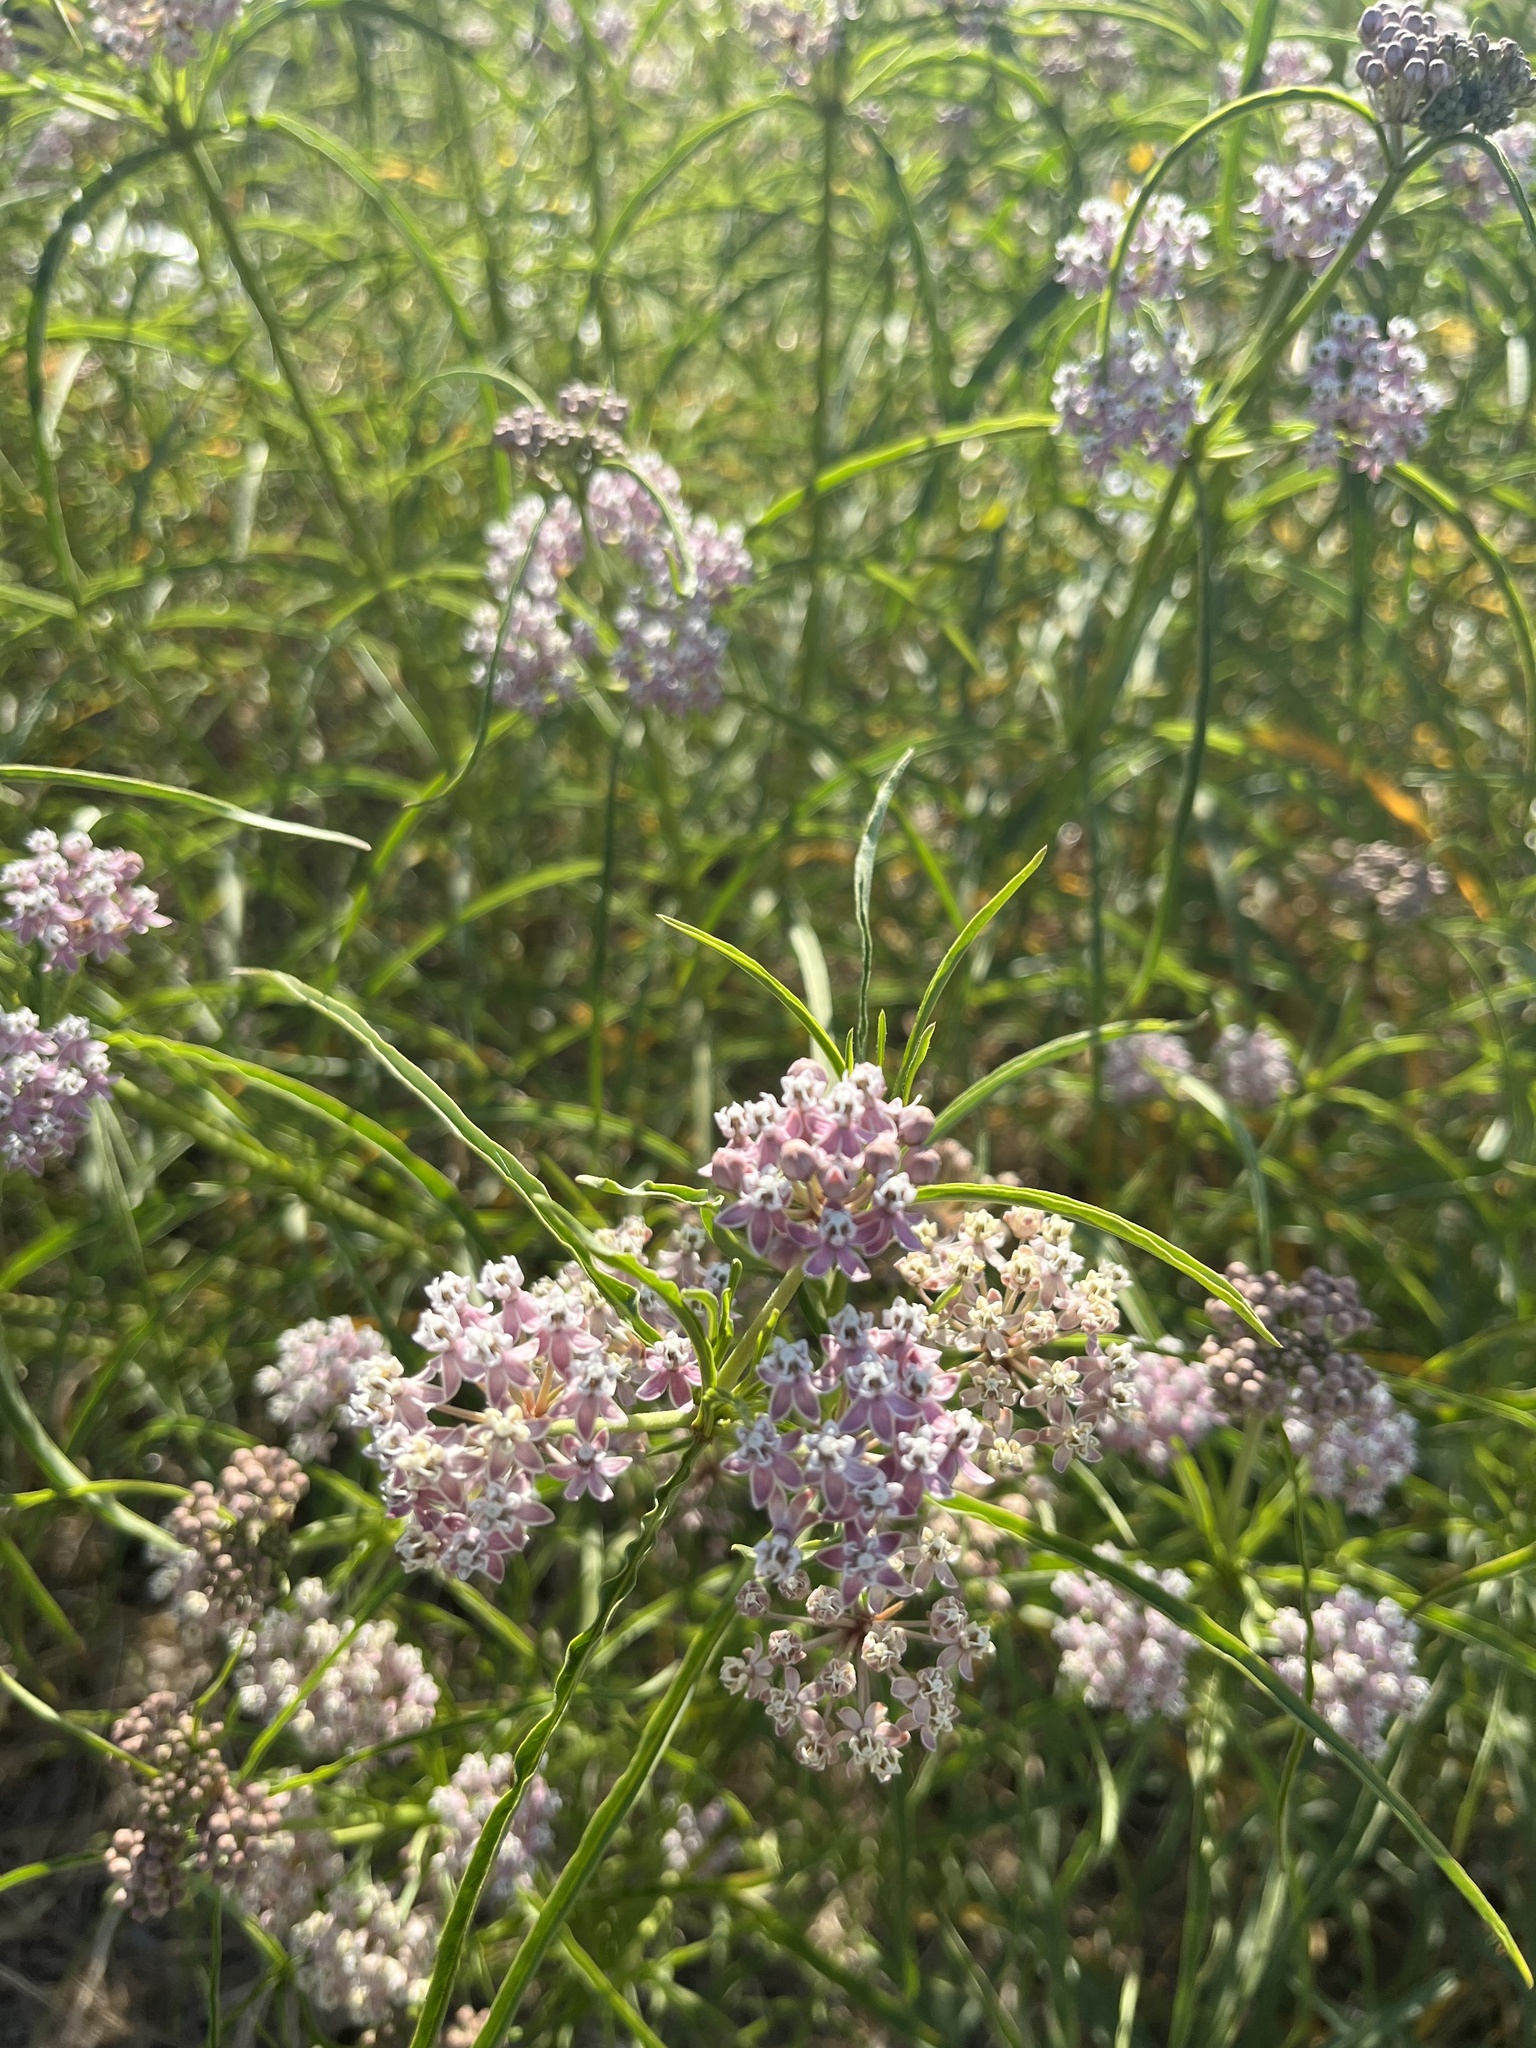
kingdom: Plantae
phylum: Tracheophyta
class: Magnoliopsida
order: Gentianales
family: Apocynaceae
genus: Asclepias
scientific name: Asclepias fascicularis
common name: Mexican milkweed
